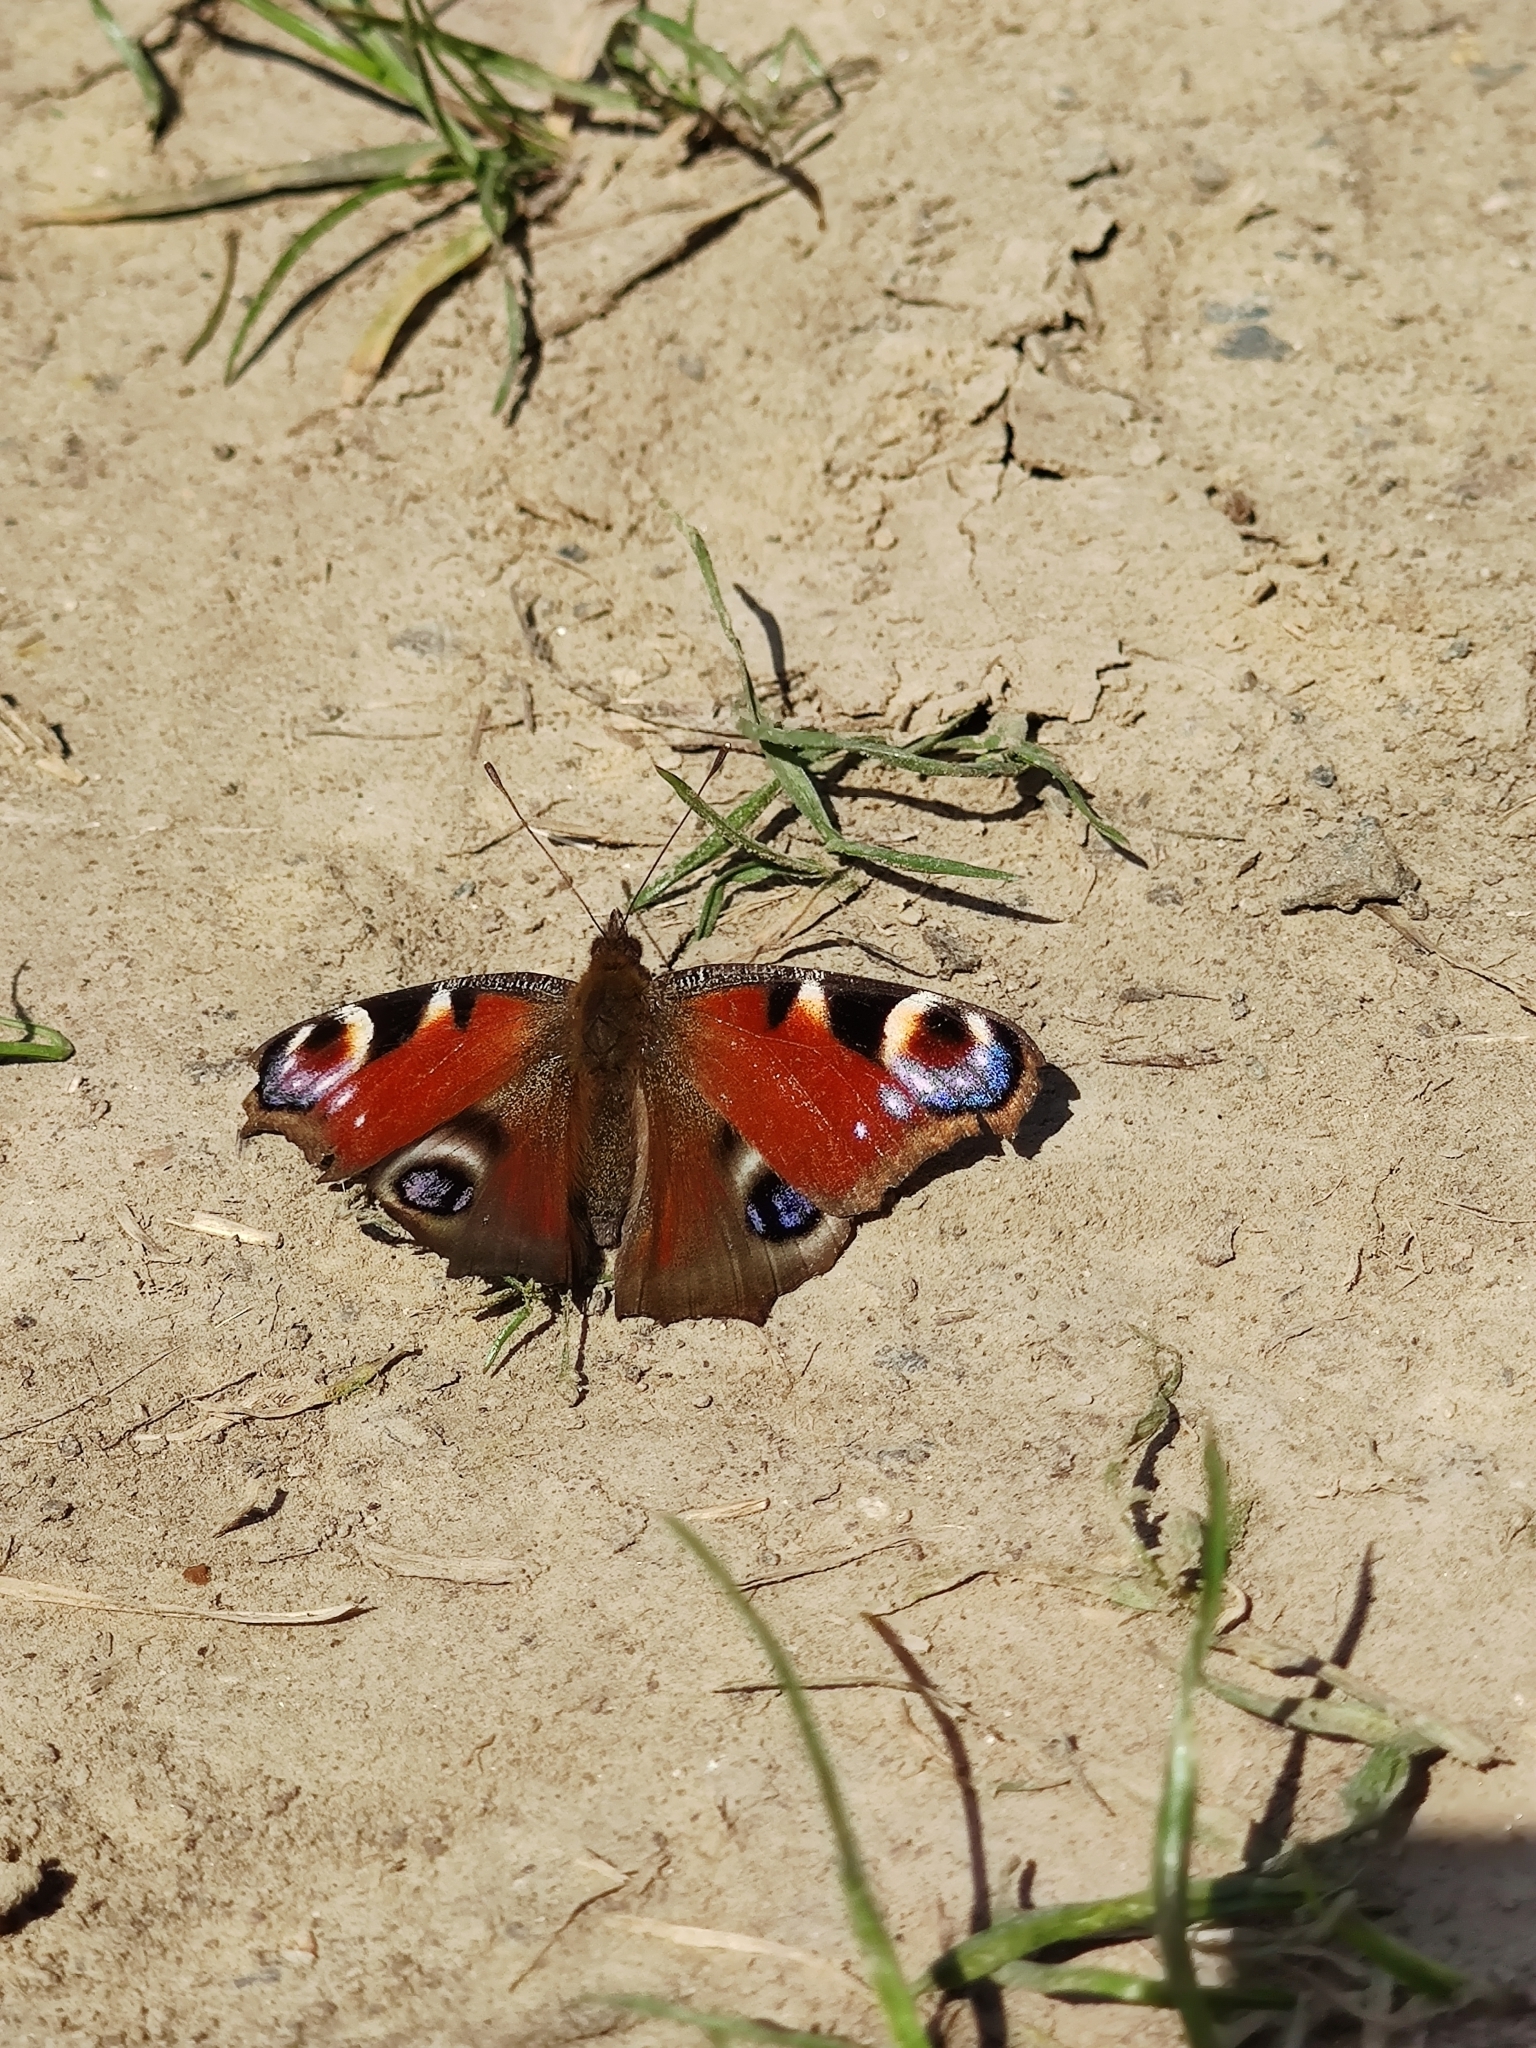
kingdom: Animalia
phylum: Arthropoda
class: Insecta
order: Lepidoptera
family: Nymphalidae
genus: Aglais
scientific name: Aglais io
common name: Peacock
